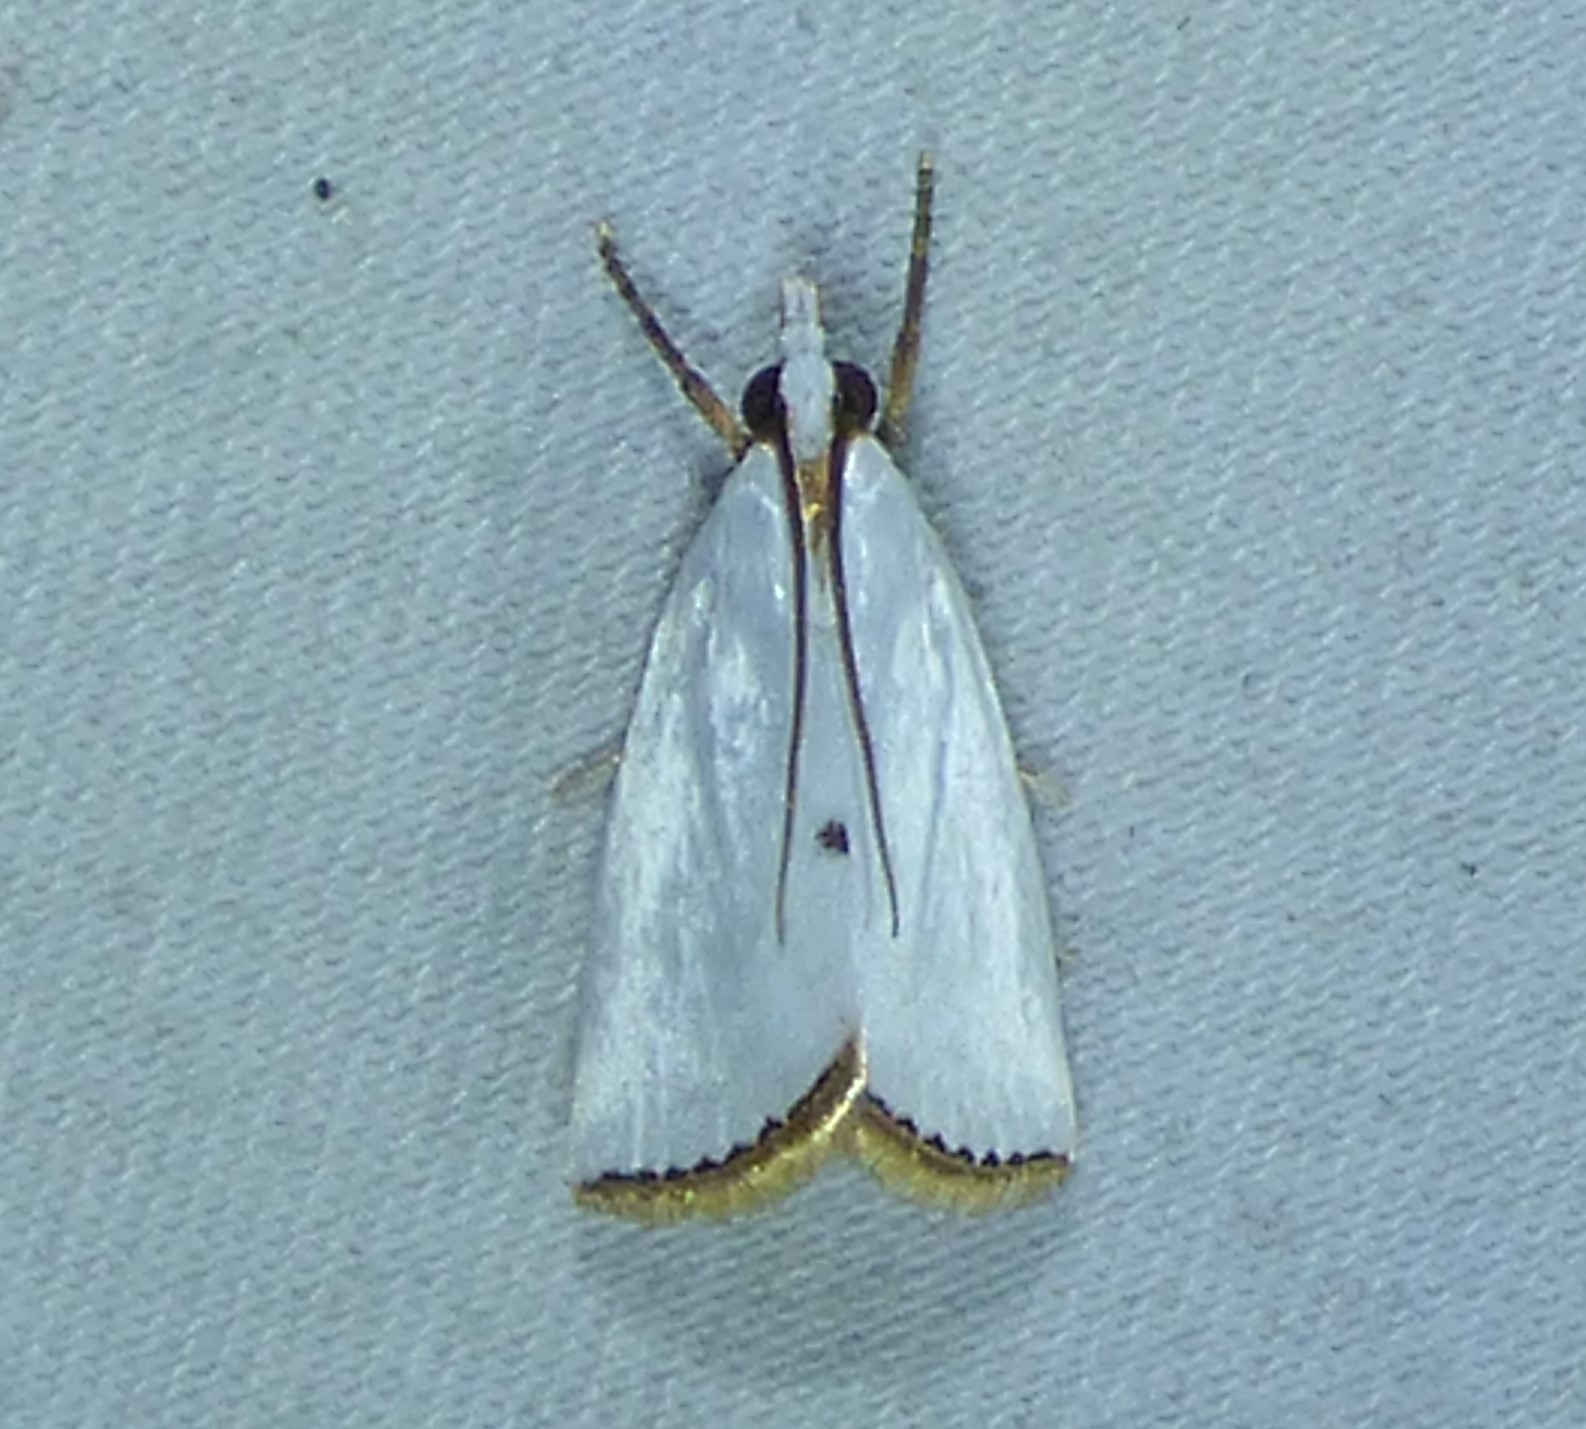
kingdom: Animalia
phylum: Arthropoda
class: Insecta
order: Lepidoptera
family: Crambidae
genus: Argyria
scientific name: Argyria nivalis
